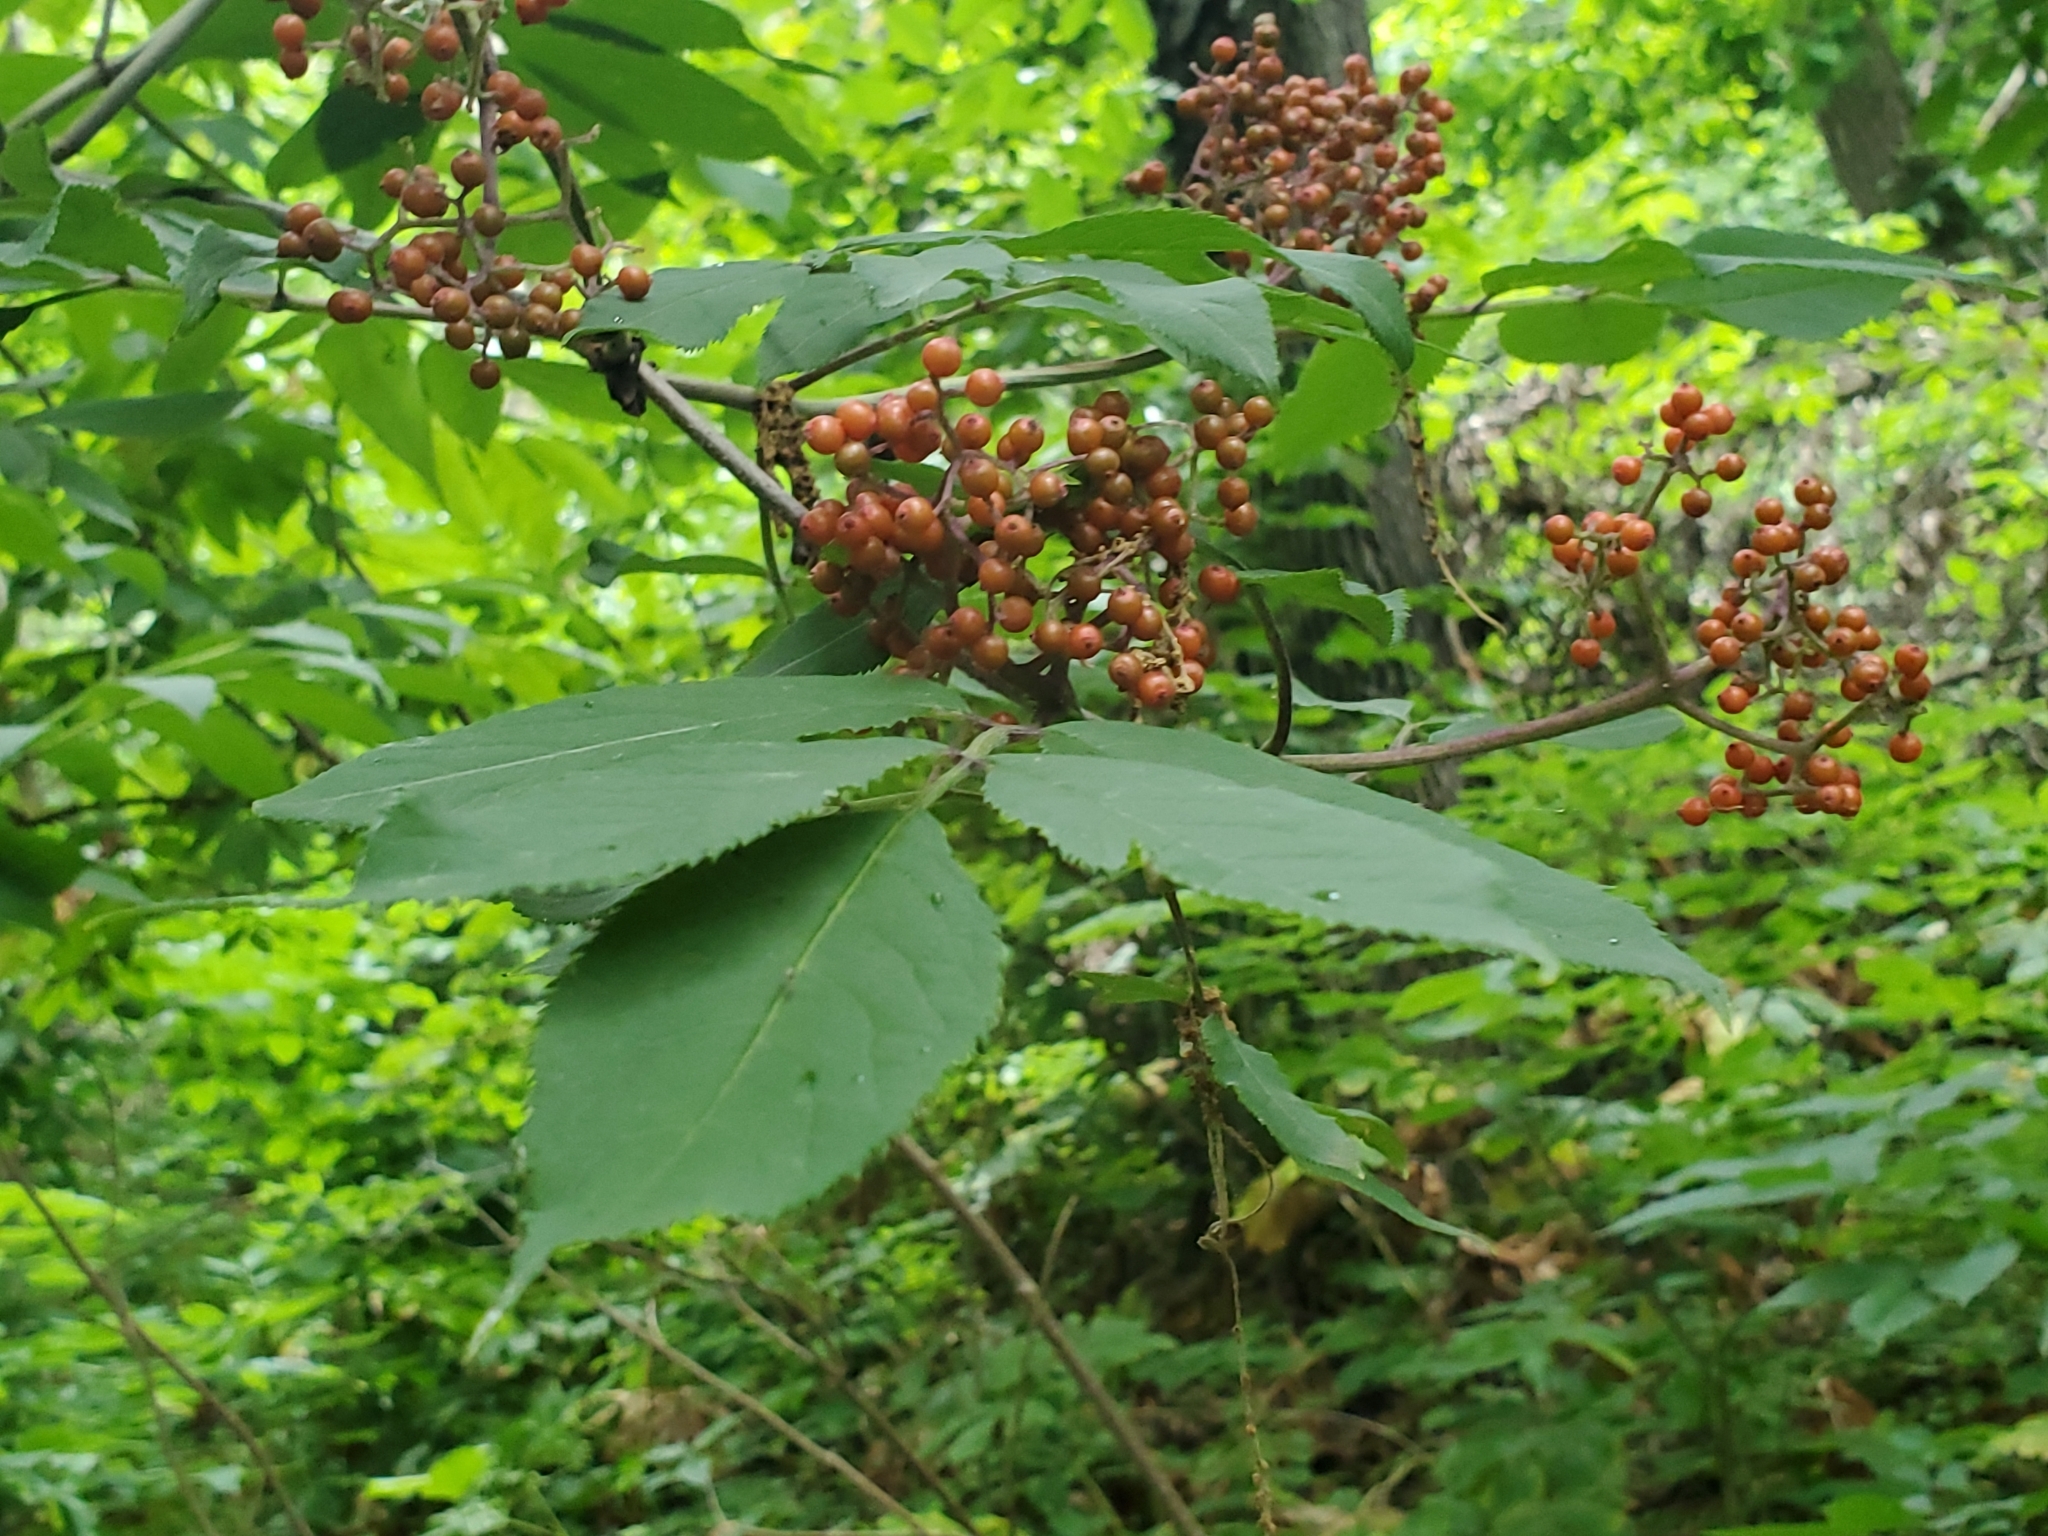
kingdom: Plantae
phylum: Tracheophyta
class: Magnoliopsida
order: Dipsacales
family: Viburnaceae
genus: Sambucus
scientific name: Sambucus racemosa
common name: Red-berried elder
